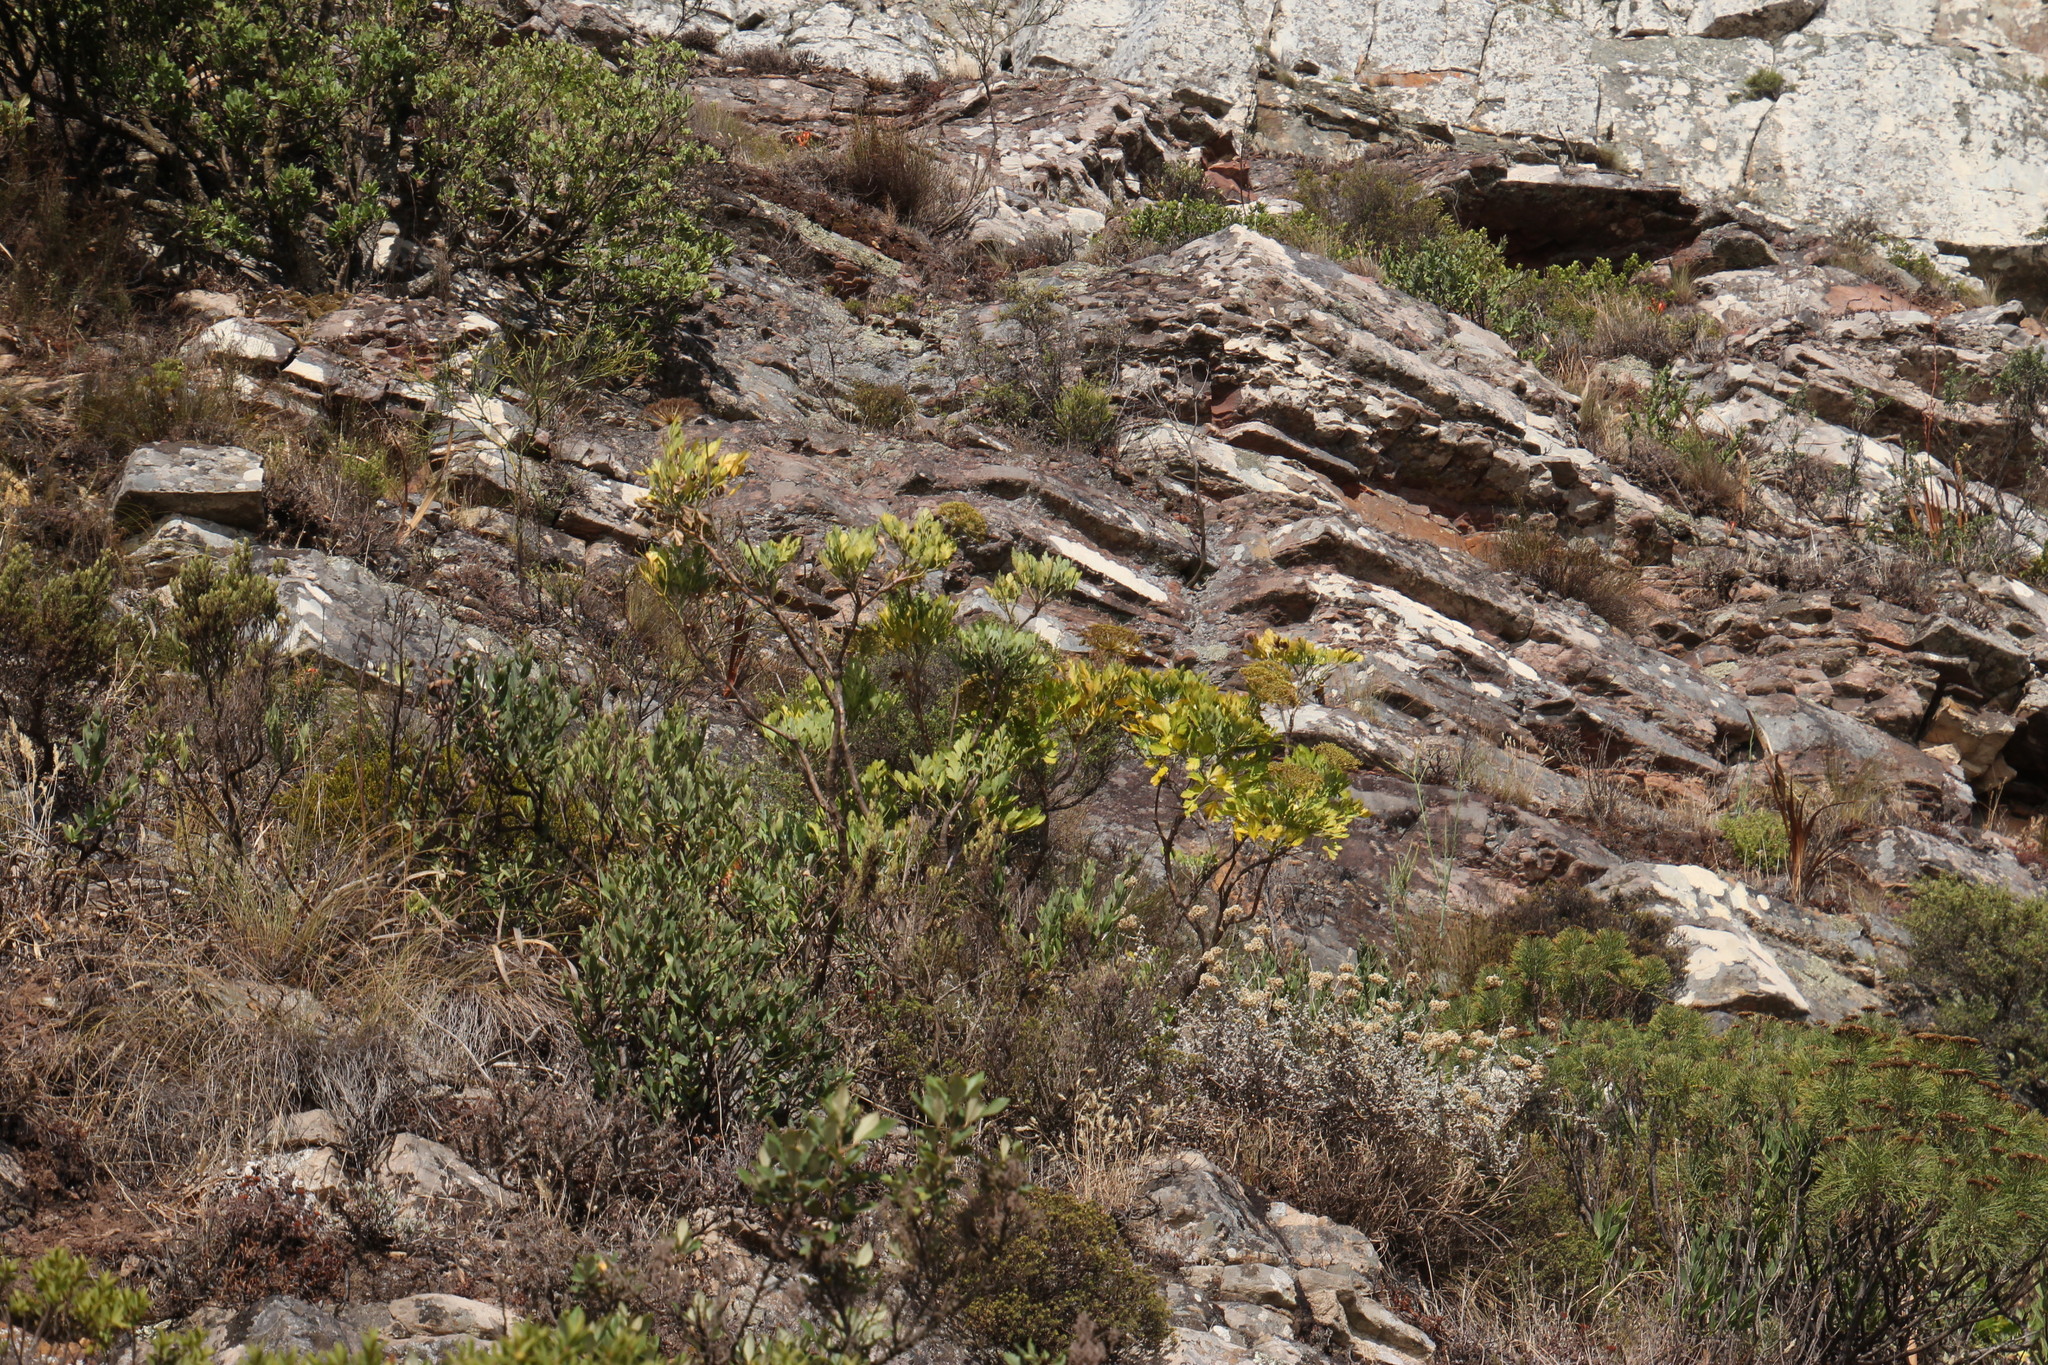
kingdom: Plantae
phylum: Tracheophyta
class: Magnoliopsida
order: Apiales
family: Apiaceae
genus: Notobubon
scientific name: Notobubon galbanum
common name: Blisterbush
